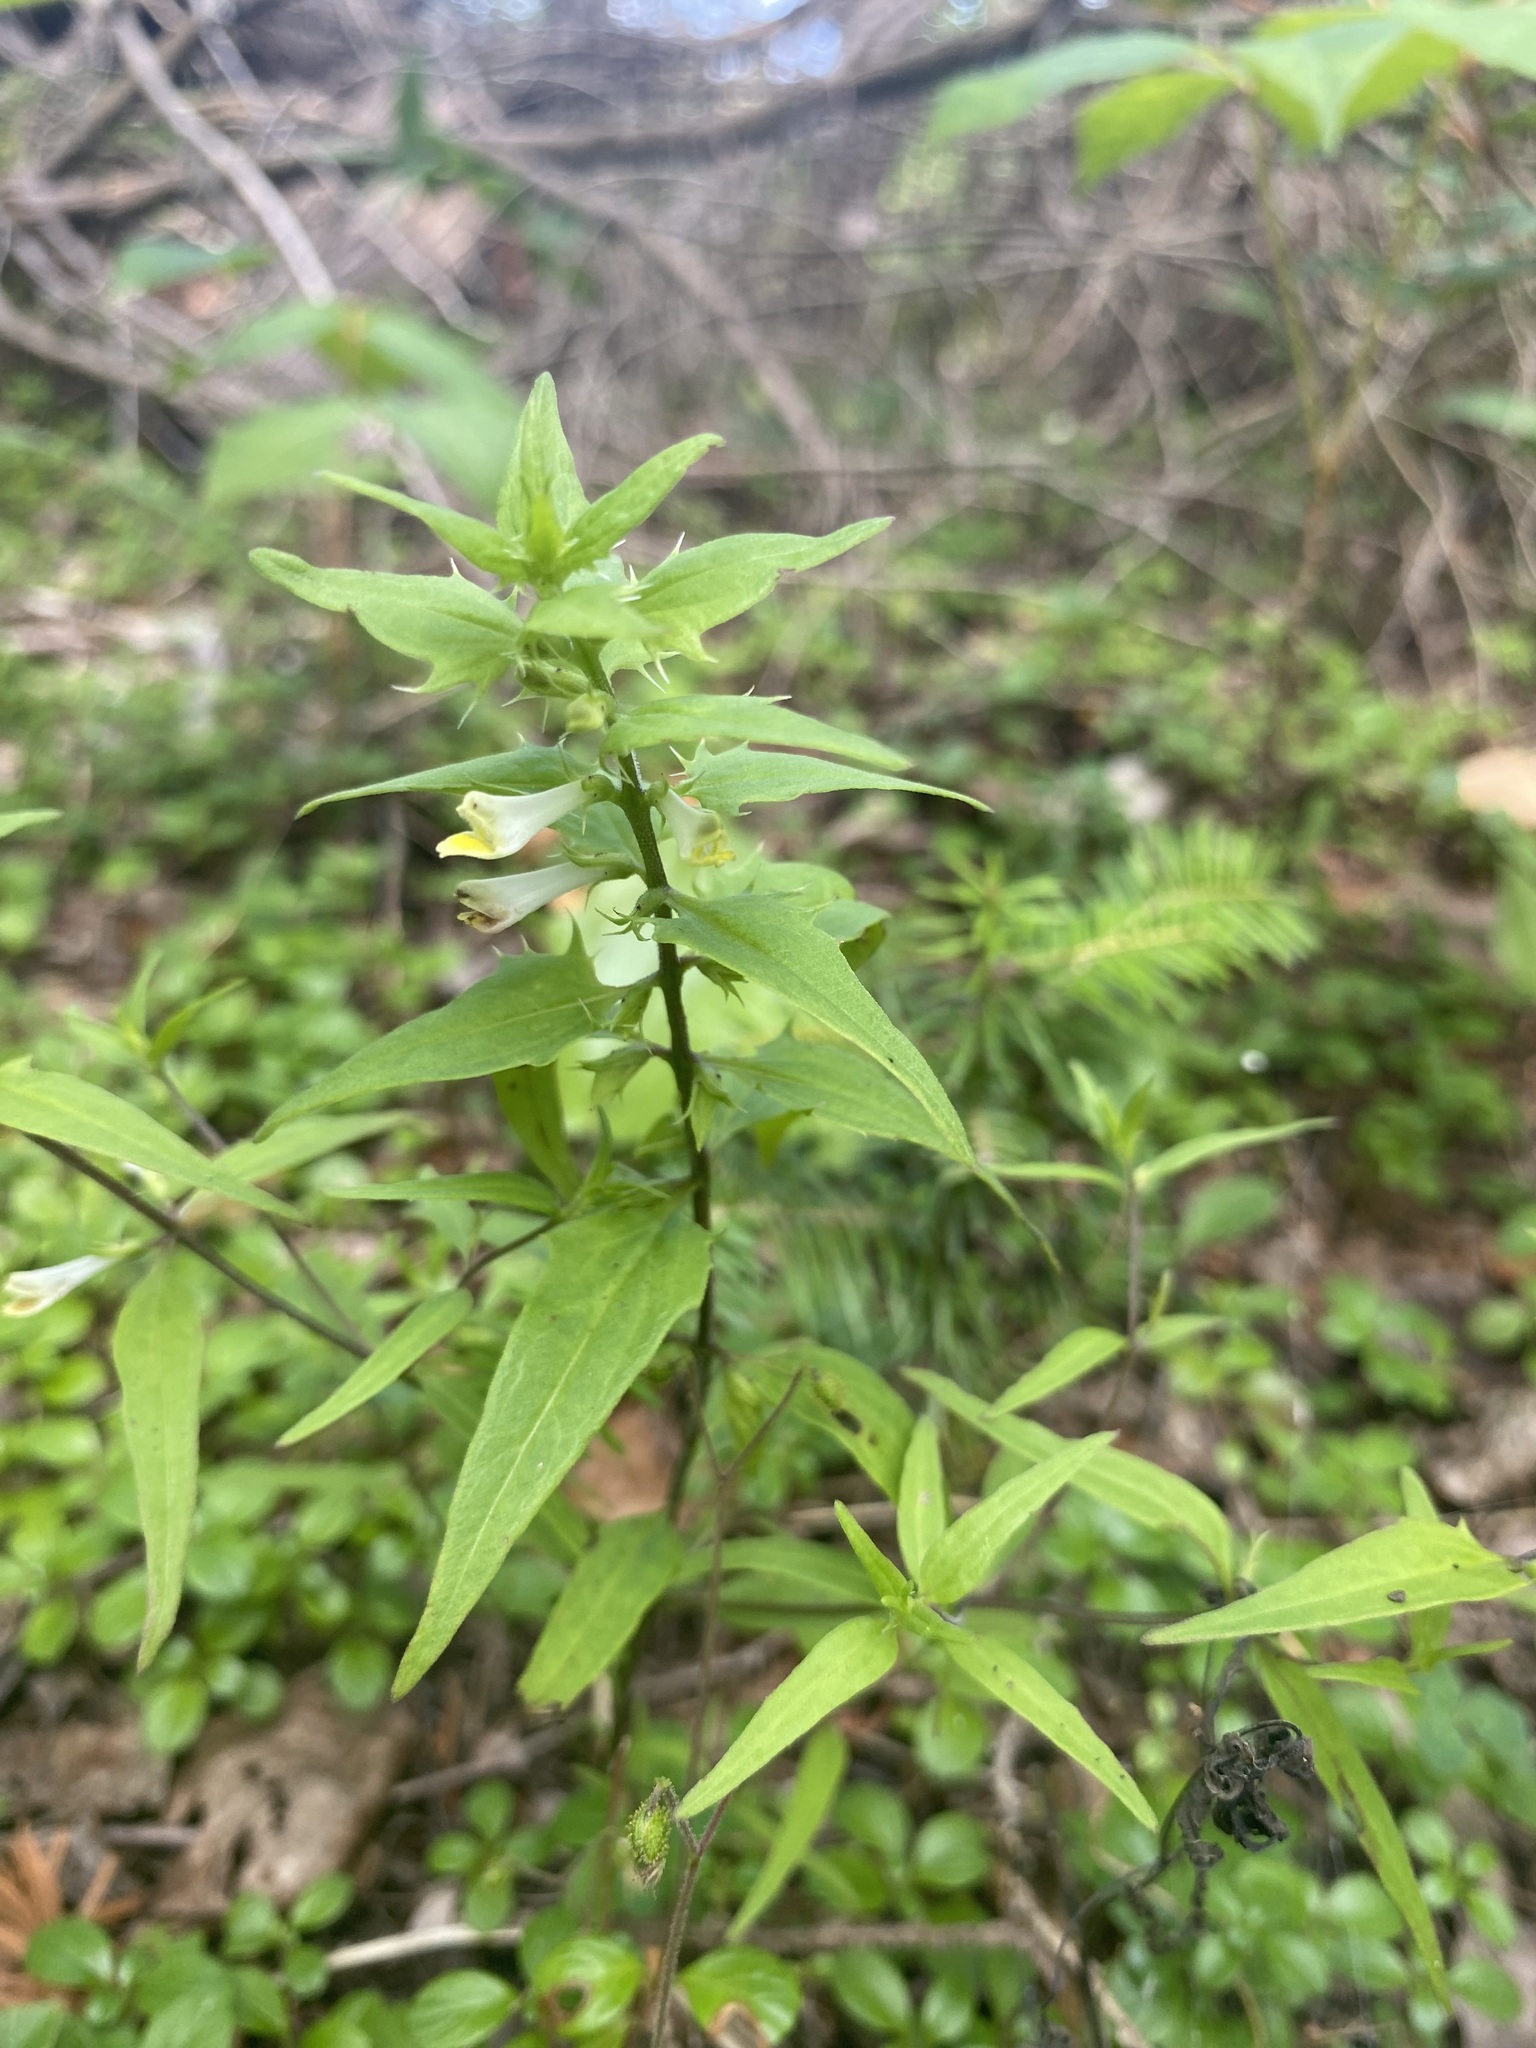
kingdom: Plantae
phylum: Tracheophyta
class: Magnoliopsida
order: Lamiales
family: Orobanchaceae
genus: Melampyrum
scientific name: Melampyrum lineare
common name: American cow-wheat
